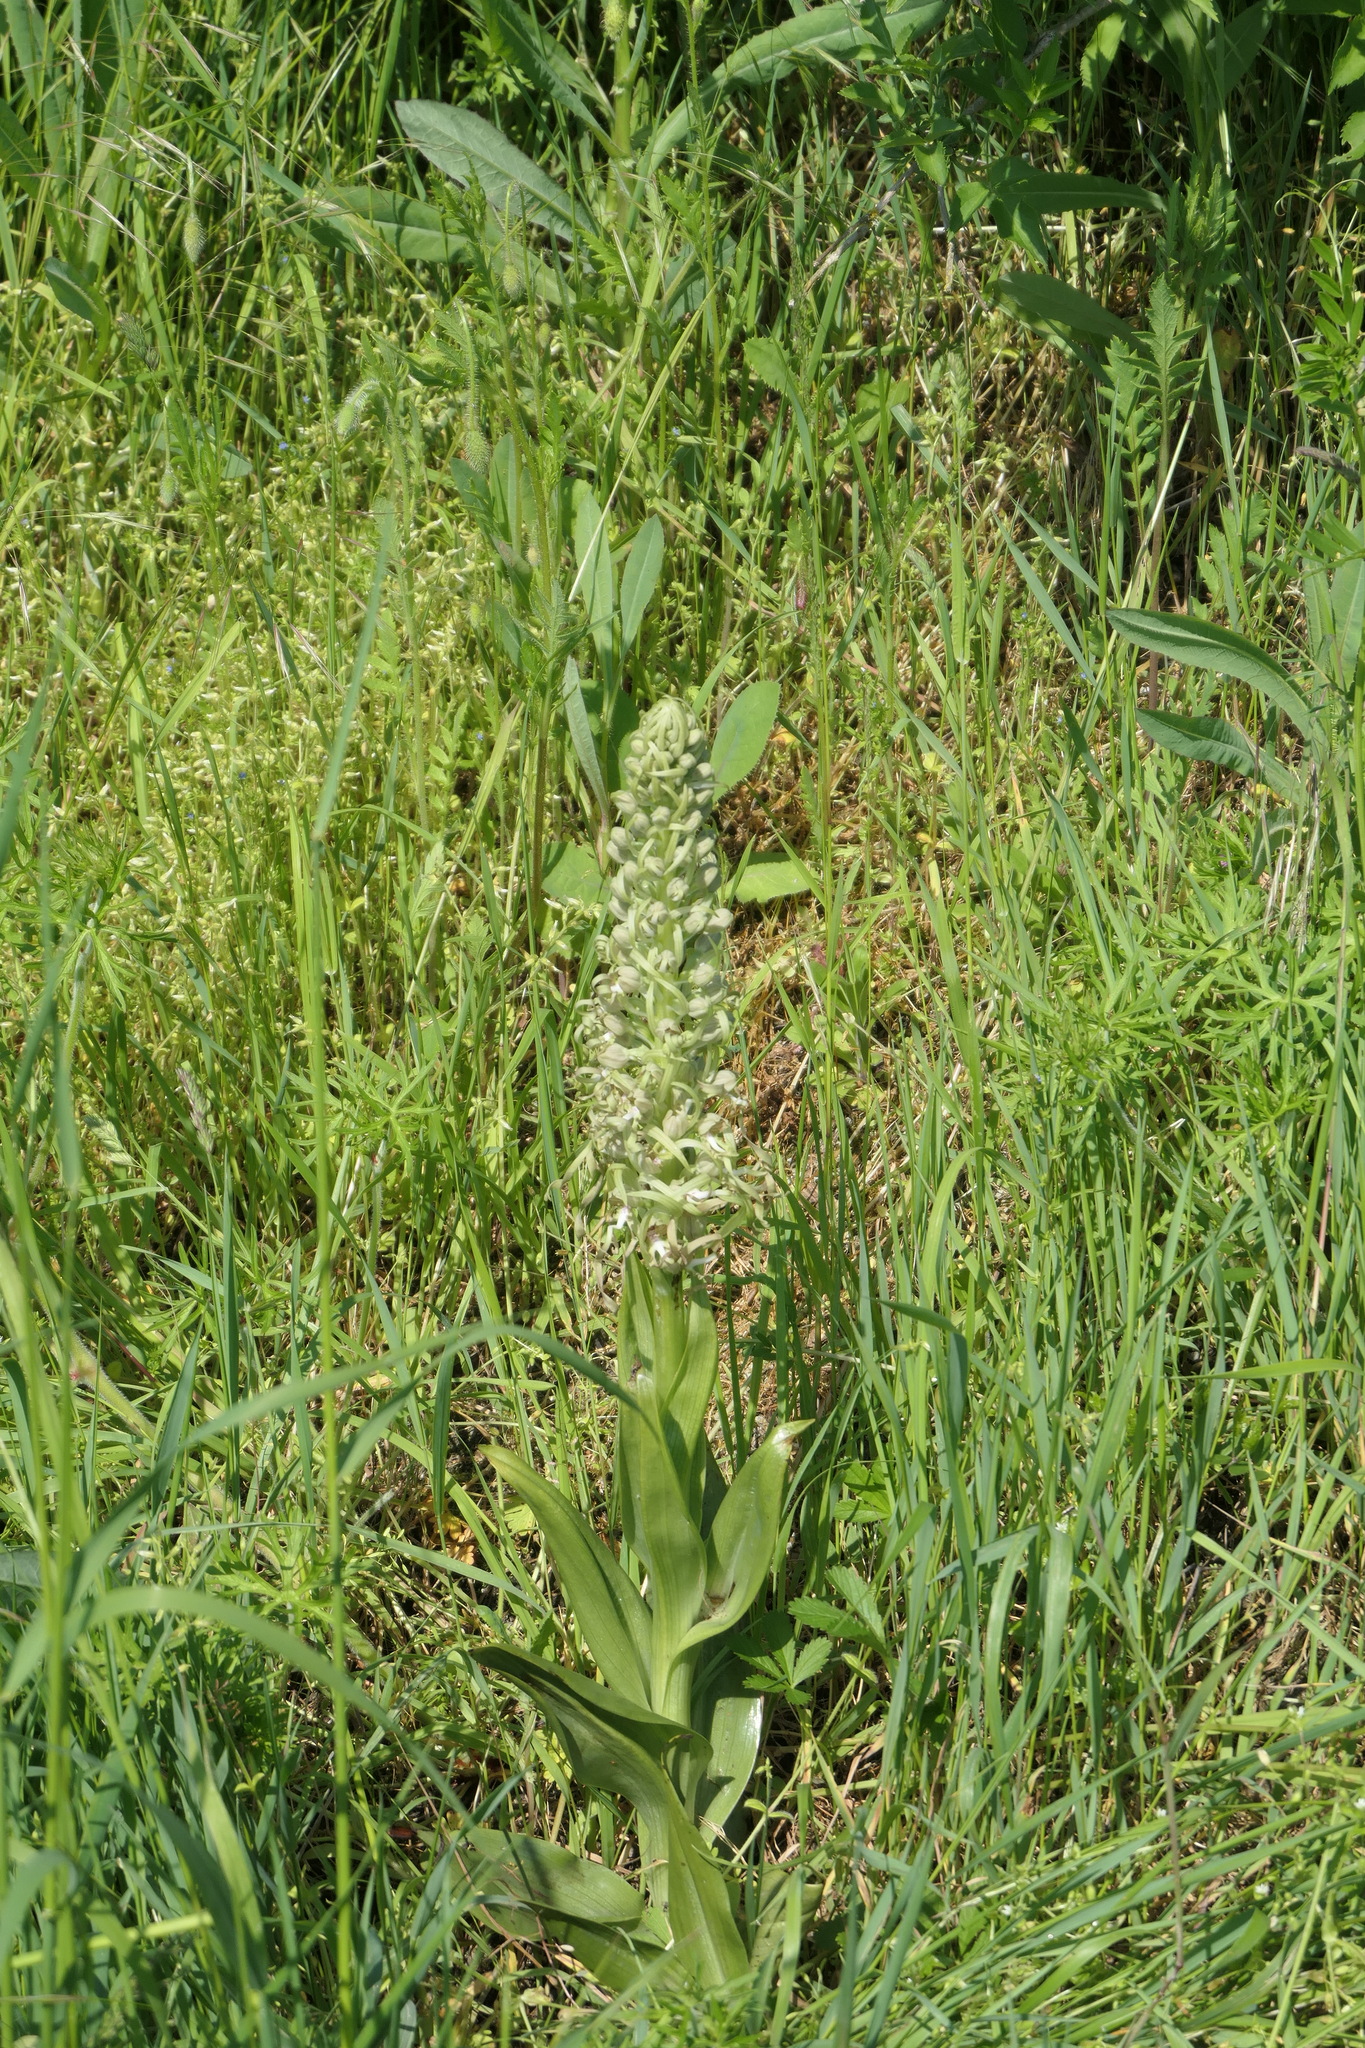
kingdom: Plantae
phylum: Tracheophyta
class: Liliopsida
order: Asparagales
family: Orchidaceae
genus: Himantoglossum
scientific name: Himantoglossum hircinum
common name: Lizard orchid
